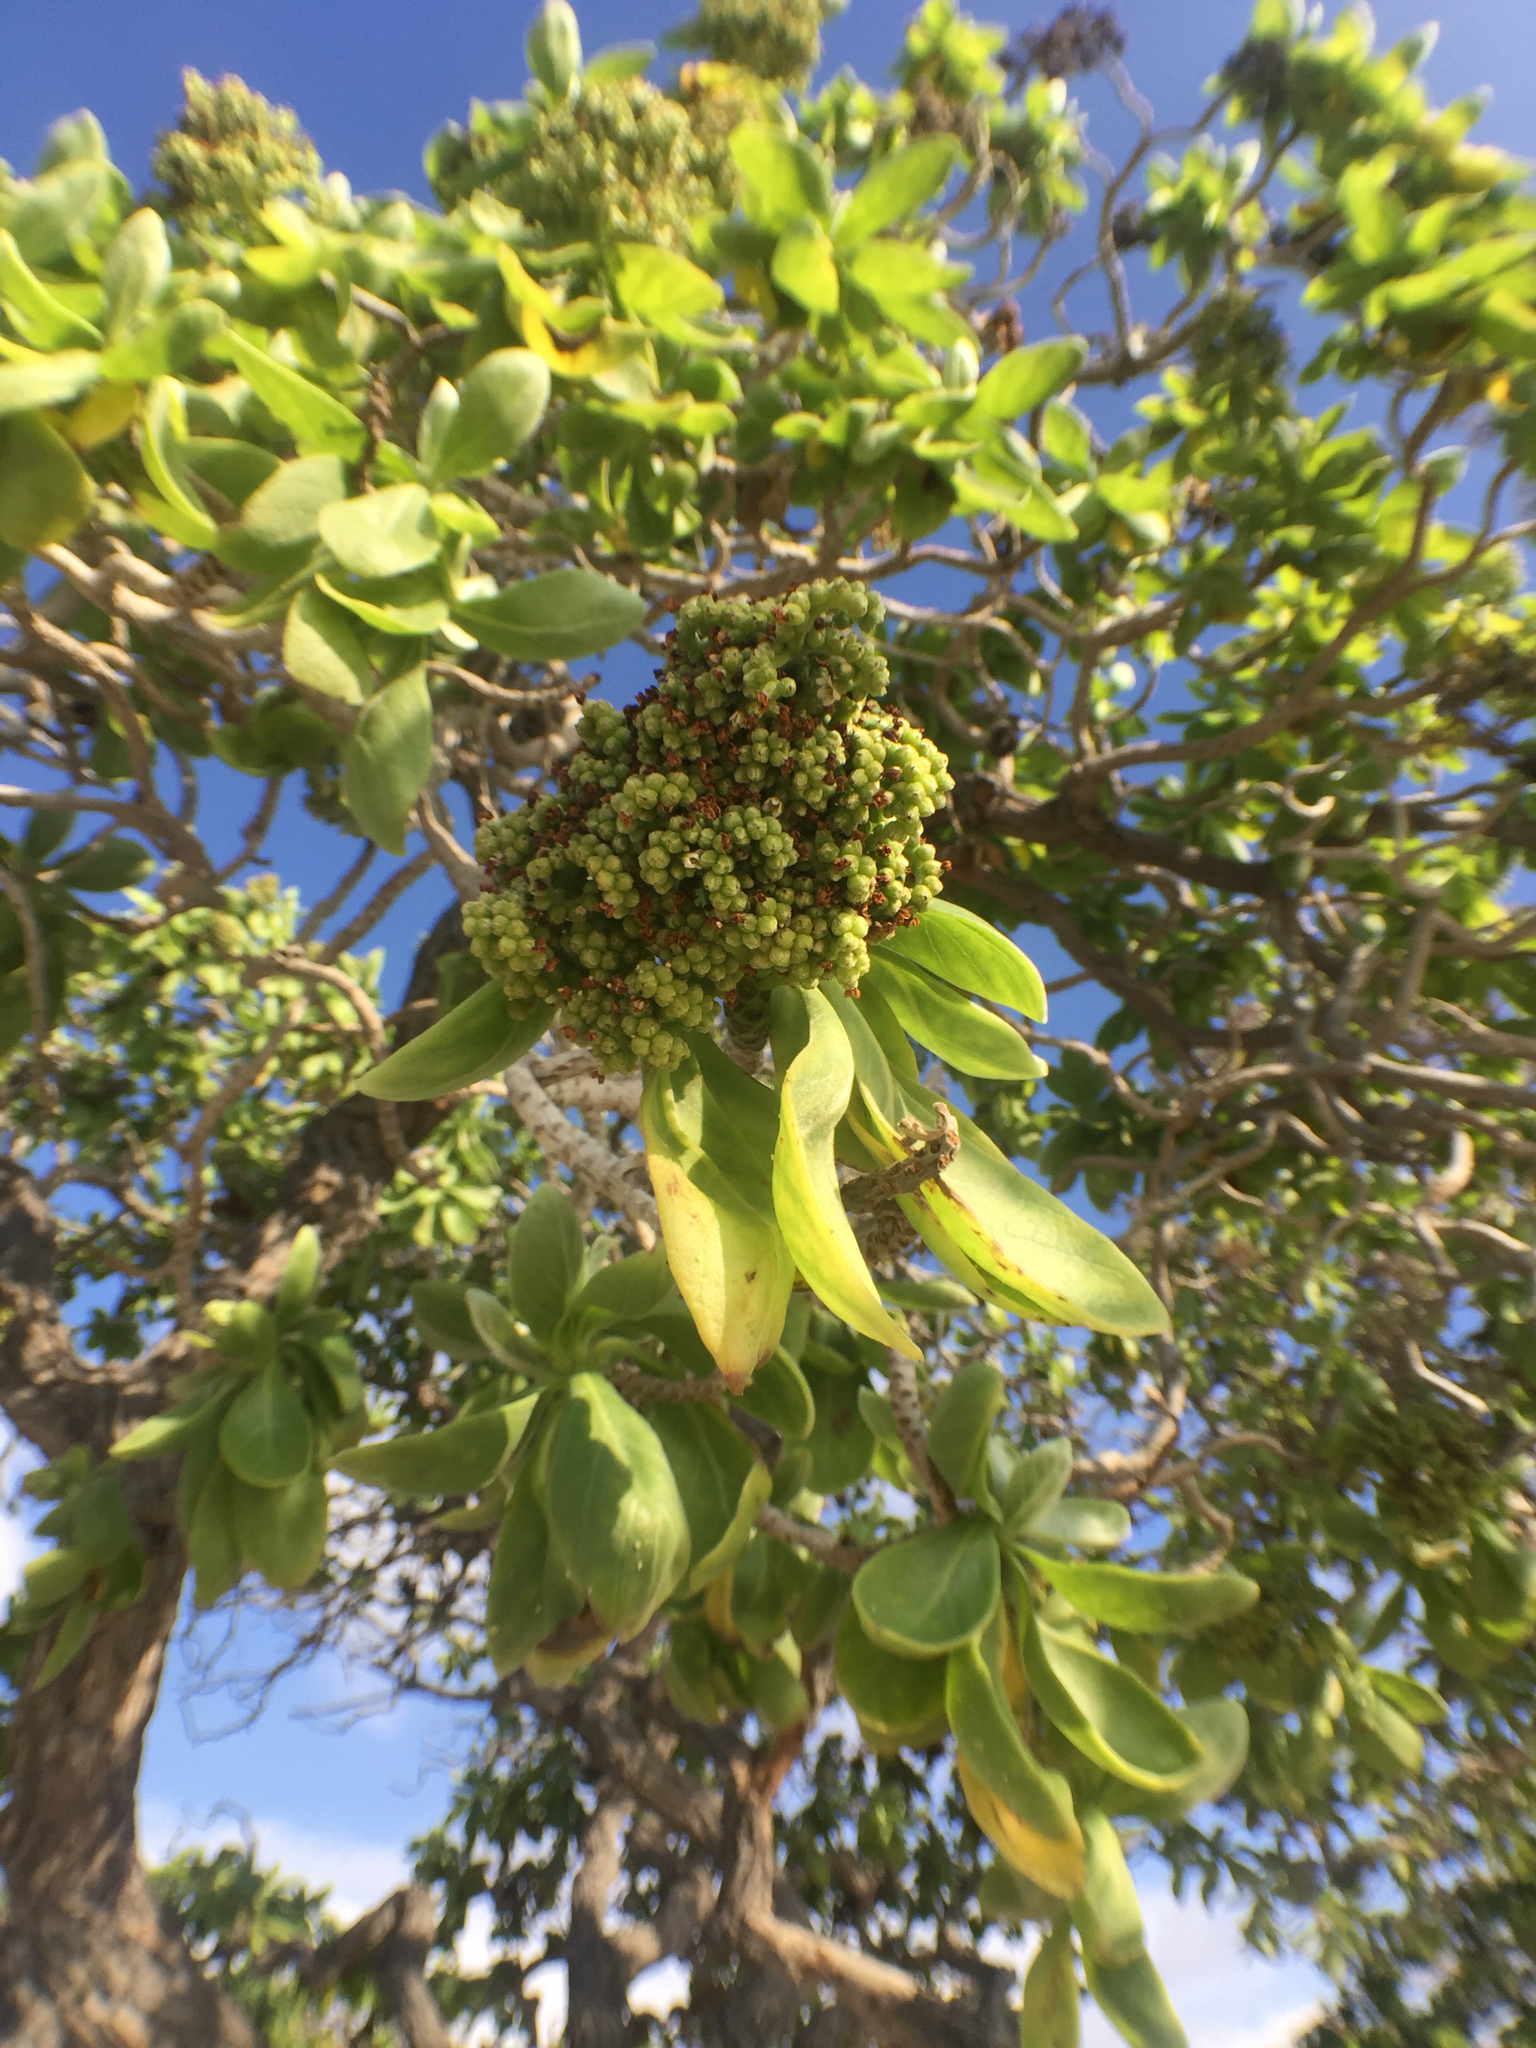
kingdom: Plantae
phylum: Tracheophyta
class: Magnoliopsida
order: Boraginales
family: Heliotropiaceae
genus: Heliotropium
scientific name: Heliotropium velutinum
